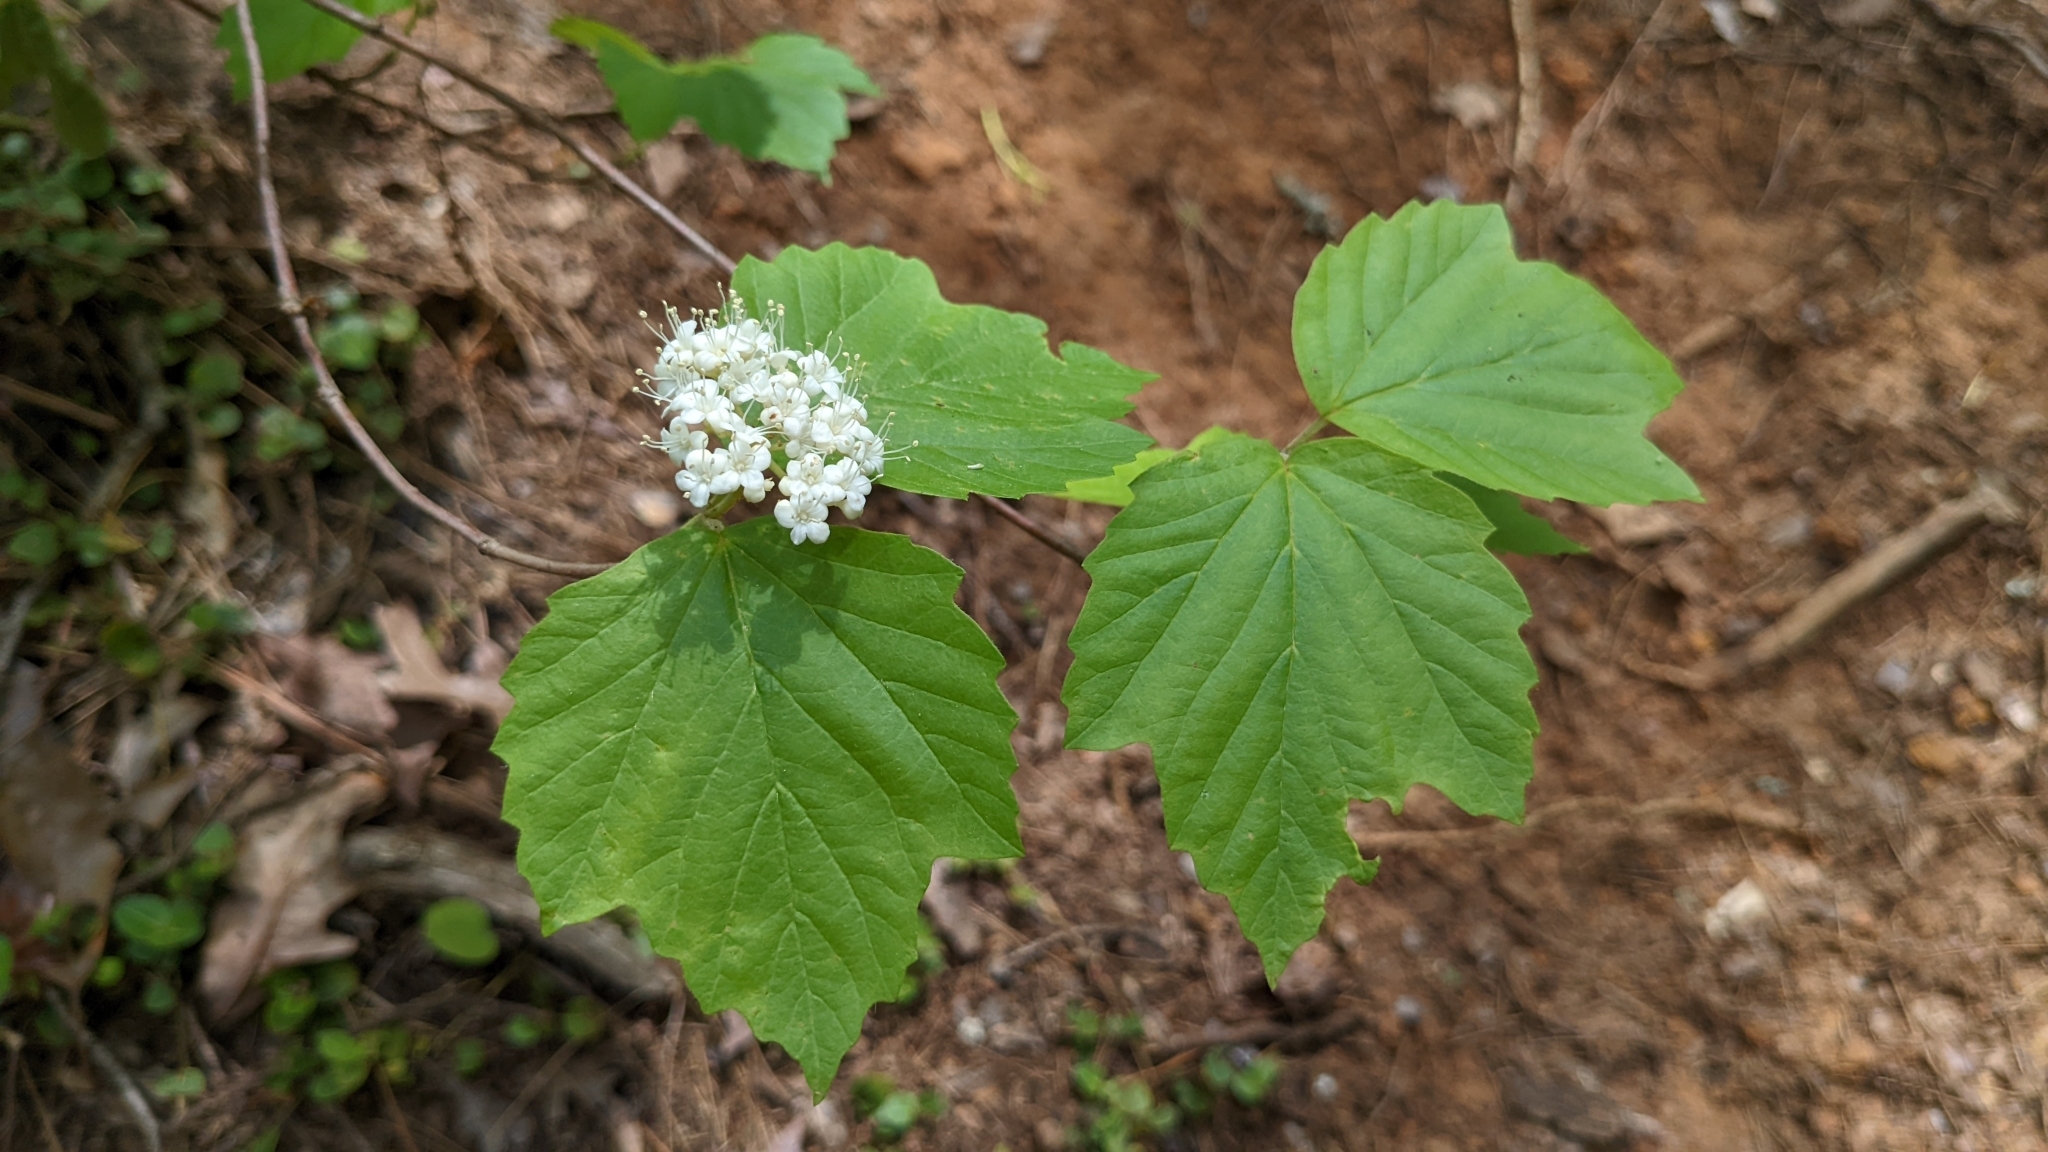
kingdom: Plantae
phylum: Tracheophyta
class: Magnoliopsida
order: Dipsacales
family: Viburnaceae
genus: Viburnum
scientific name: Viburnum acerifolium
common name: Dockmackie
